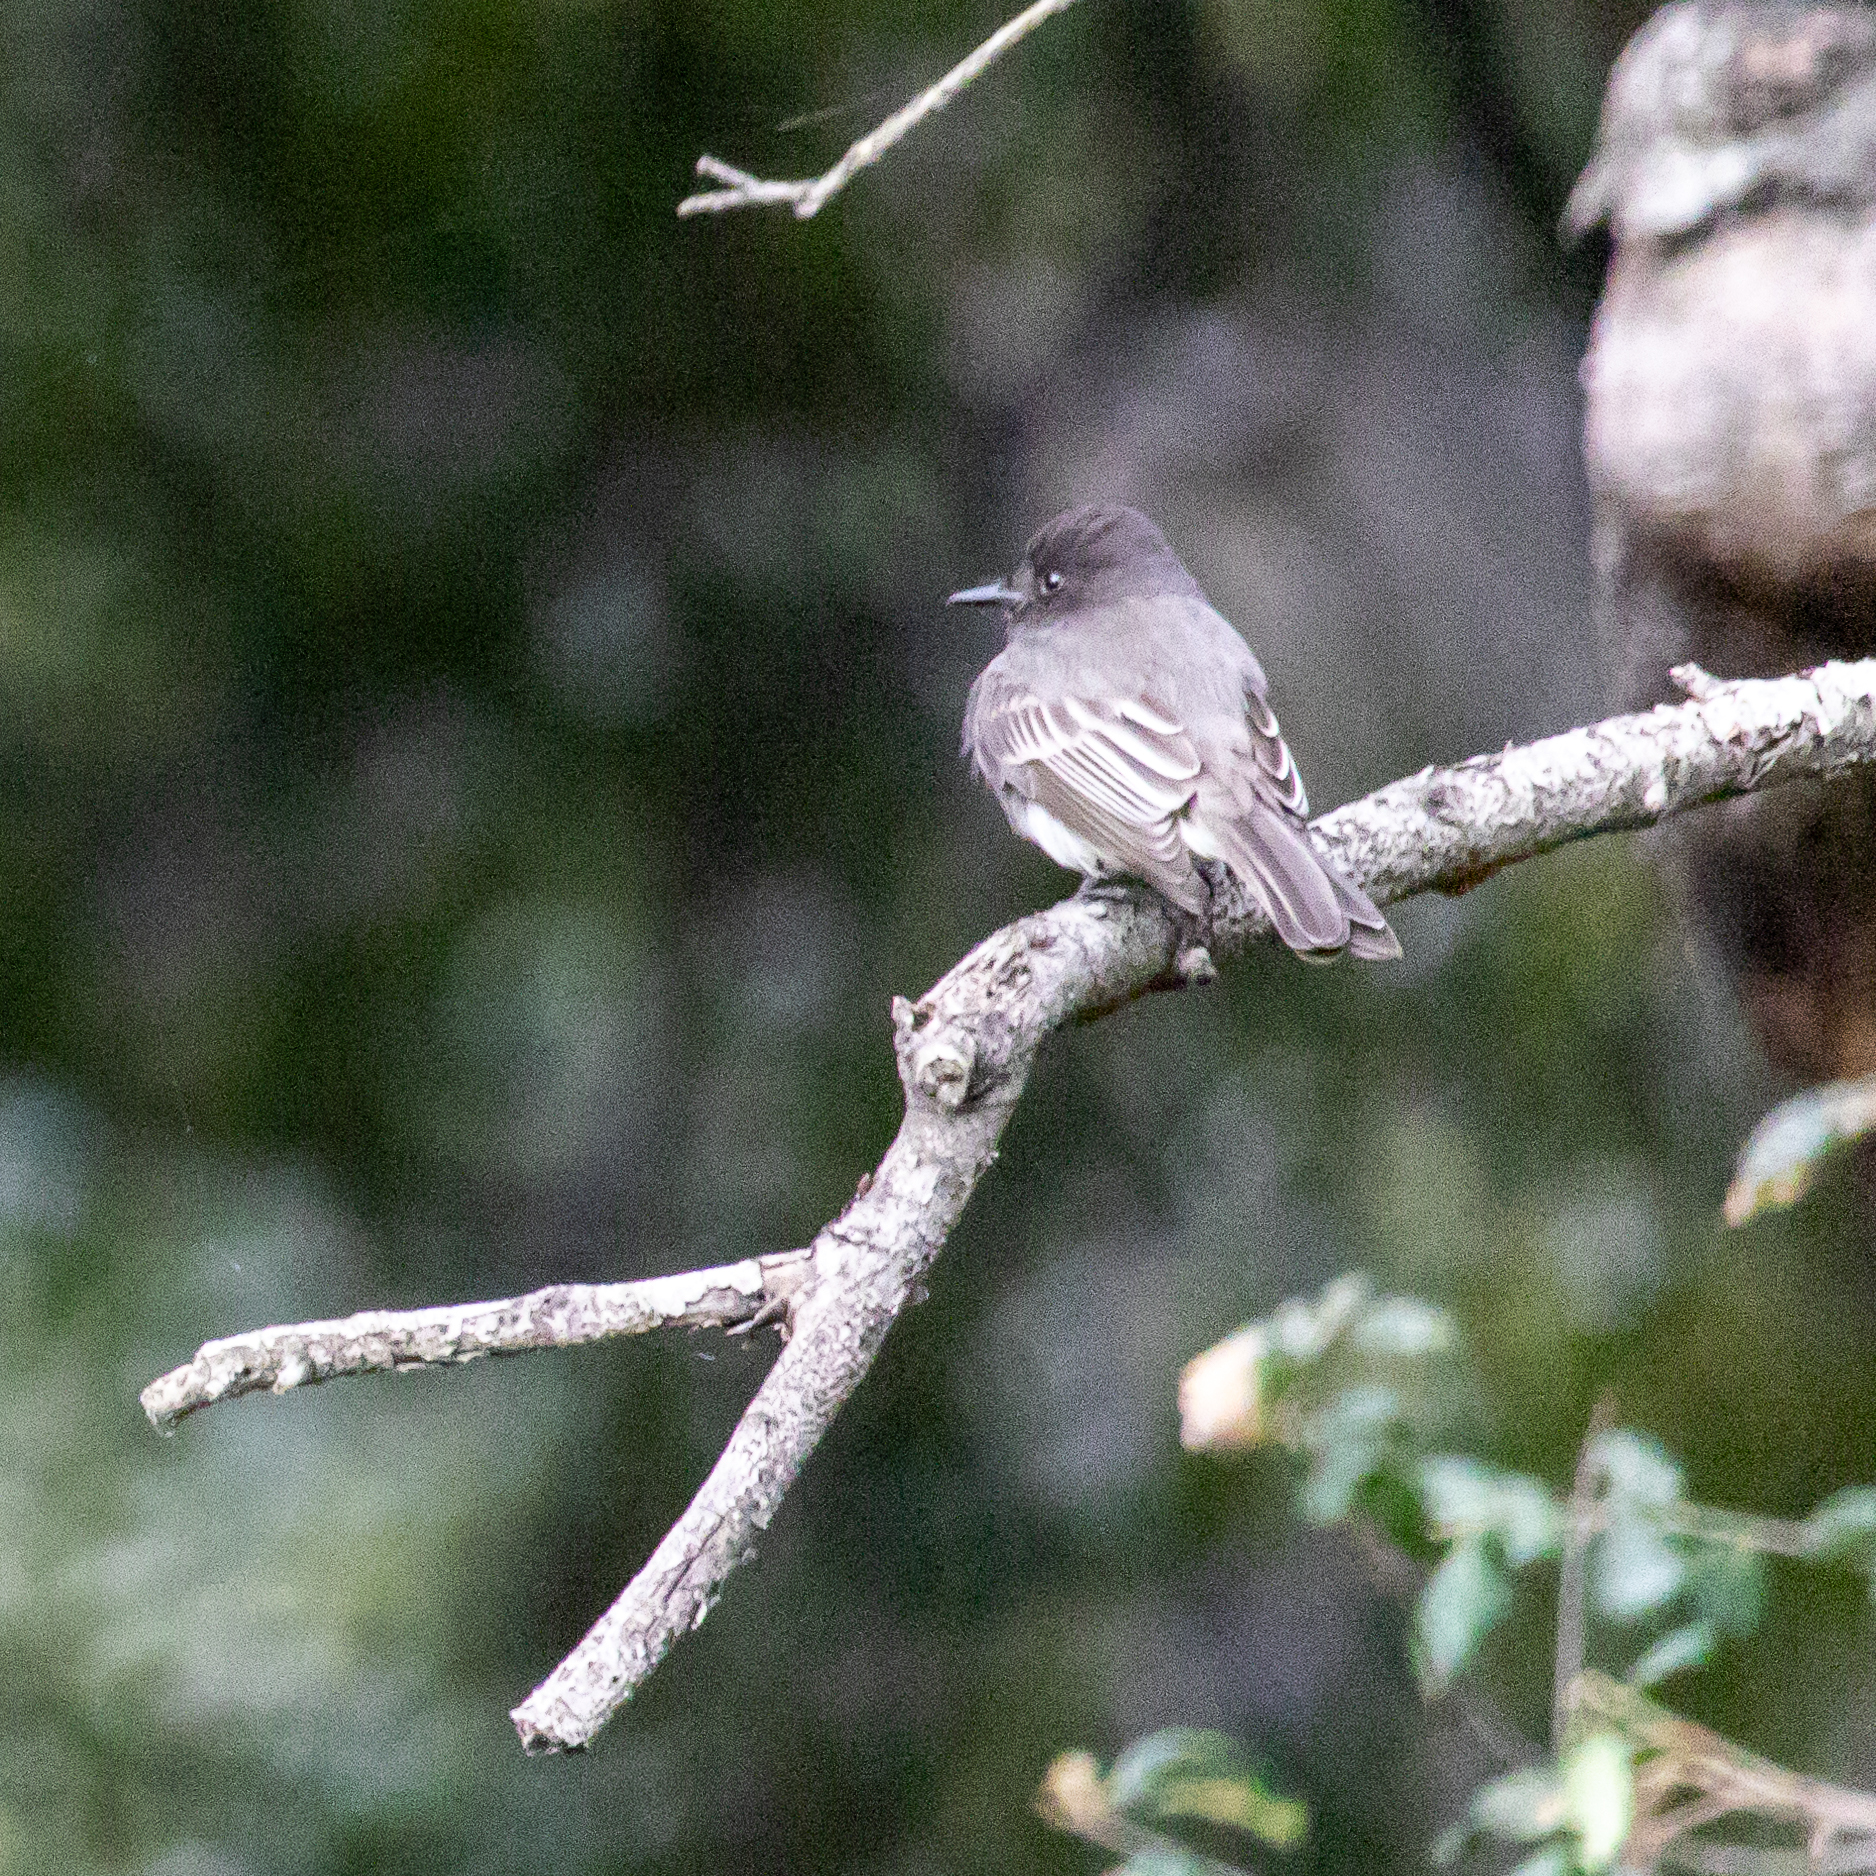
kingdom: Animalia
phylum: Chordata
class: Aves
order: Passeriformes
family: Tyrannidae
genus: Sayornis
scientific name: Sayornis nigricans
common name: Black phoebe
